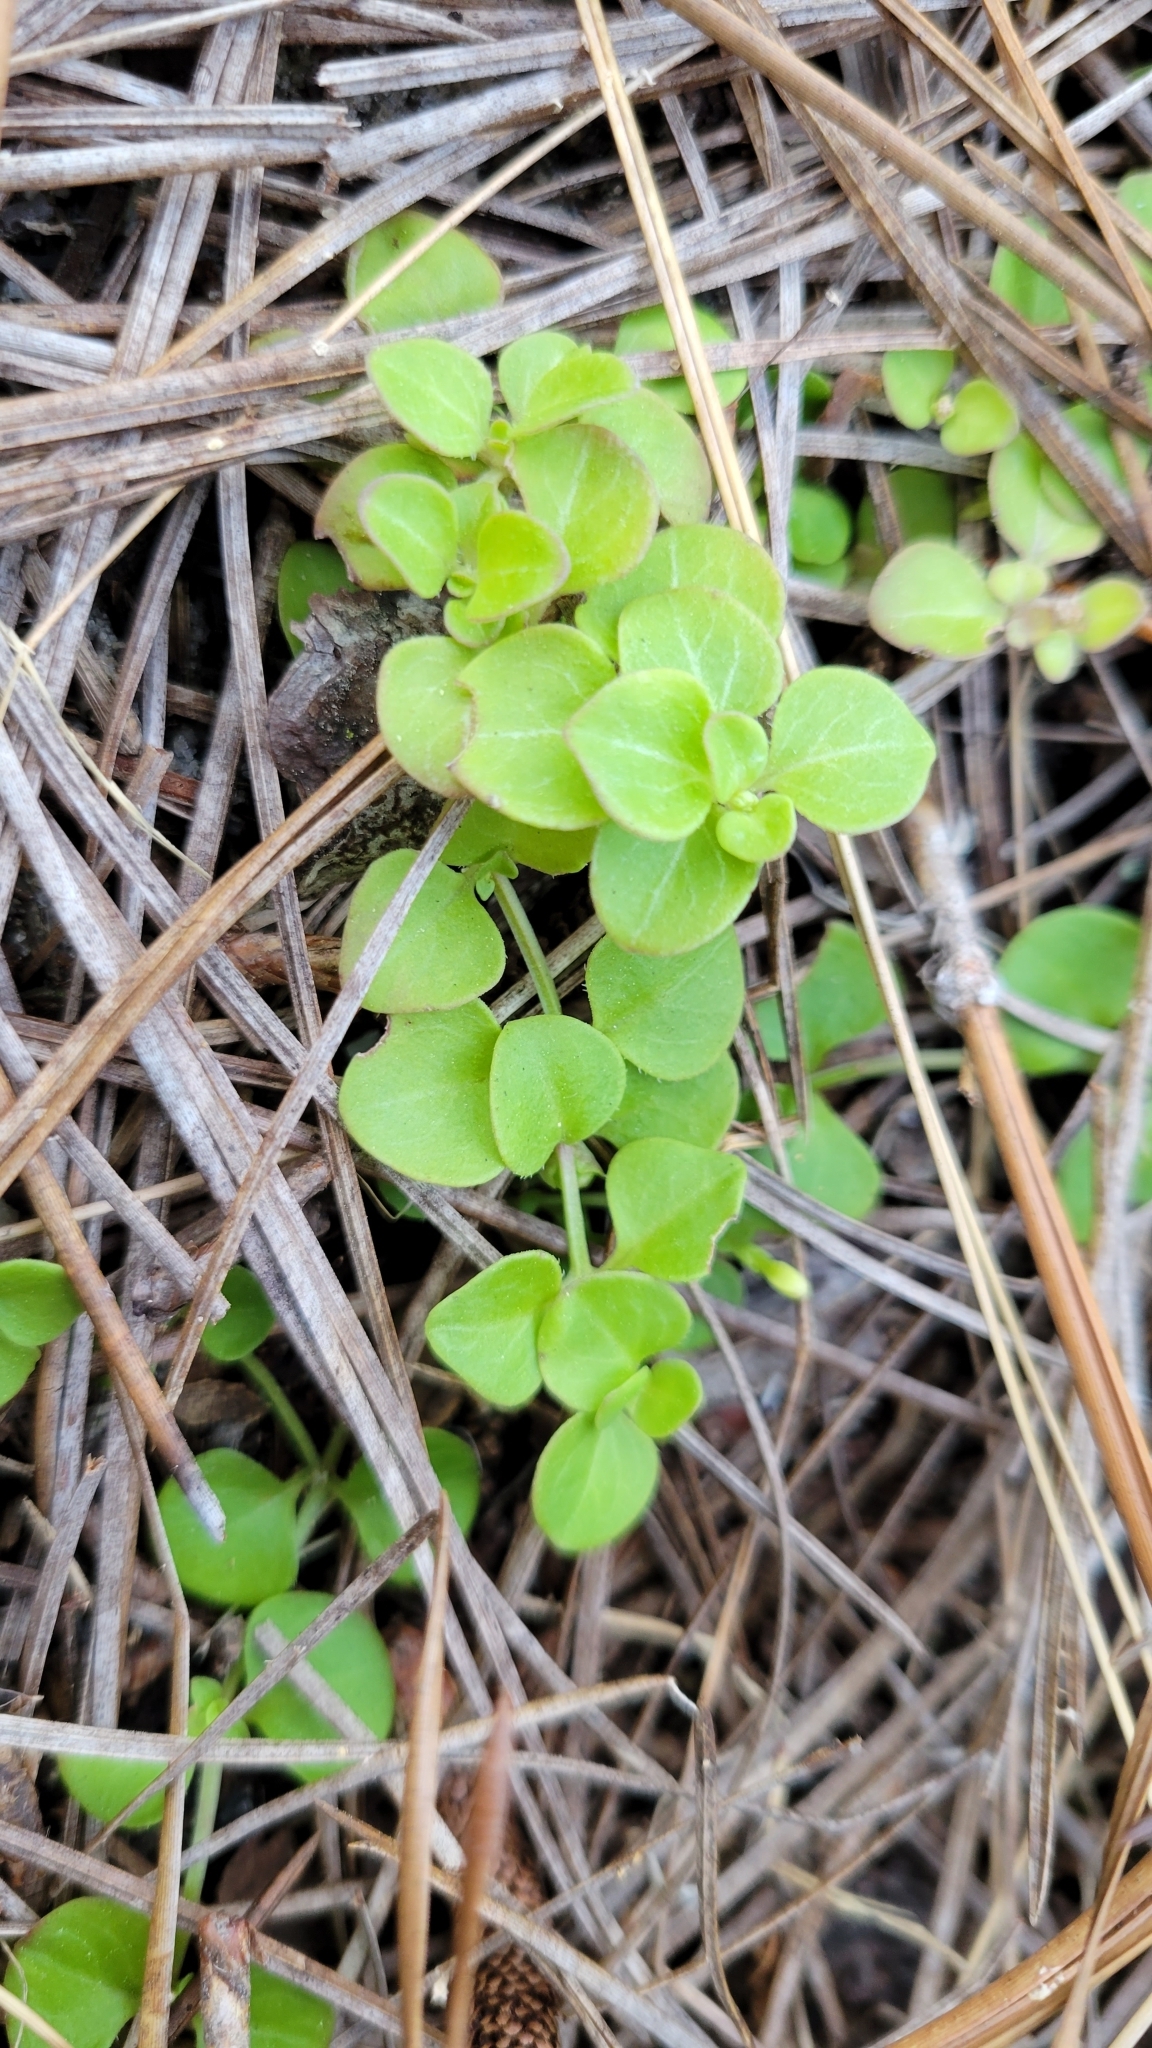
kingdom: Plantae
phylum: Tracheophyta
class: Magnoliopsida
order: Gentianales
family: Rubiaceae
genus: Houstonia
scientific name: Houstonia procumbens
